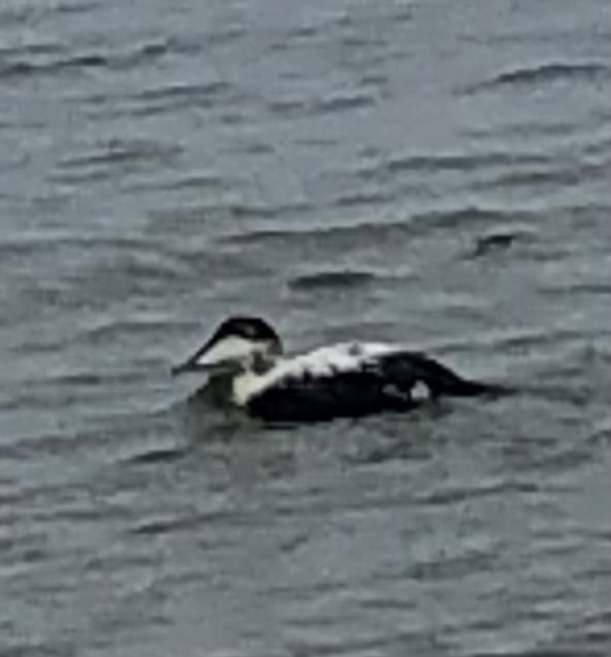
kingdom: Animalia
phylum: Chordata
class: Aves
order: Anseriformes
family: Anatidae
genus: Somateria
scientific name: Somateria mollissima
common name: Common eider
